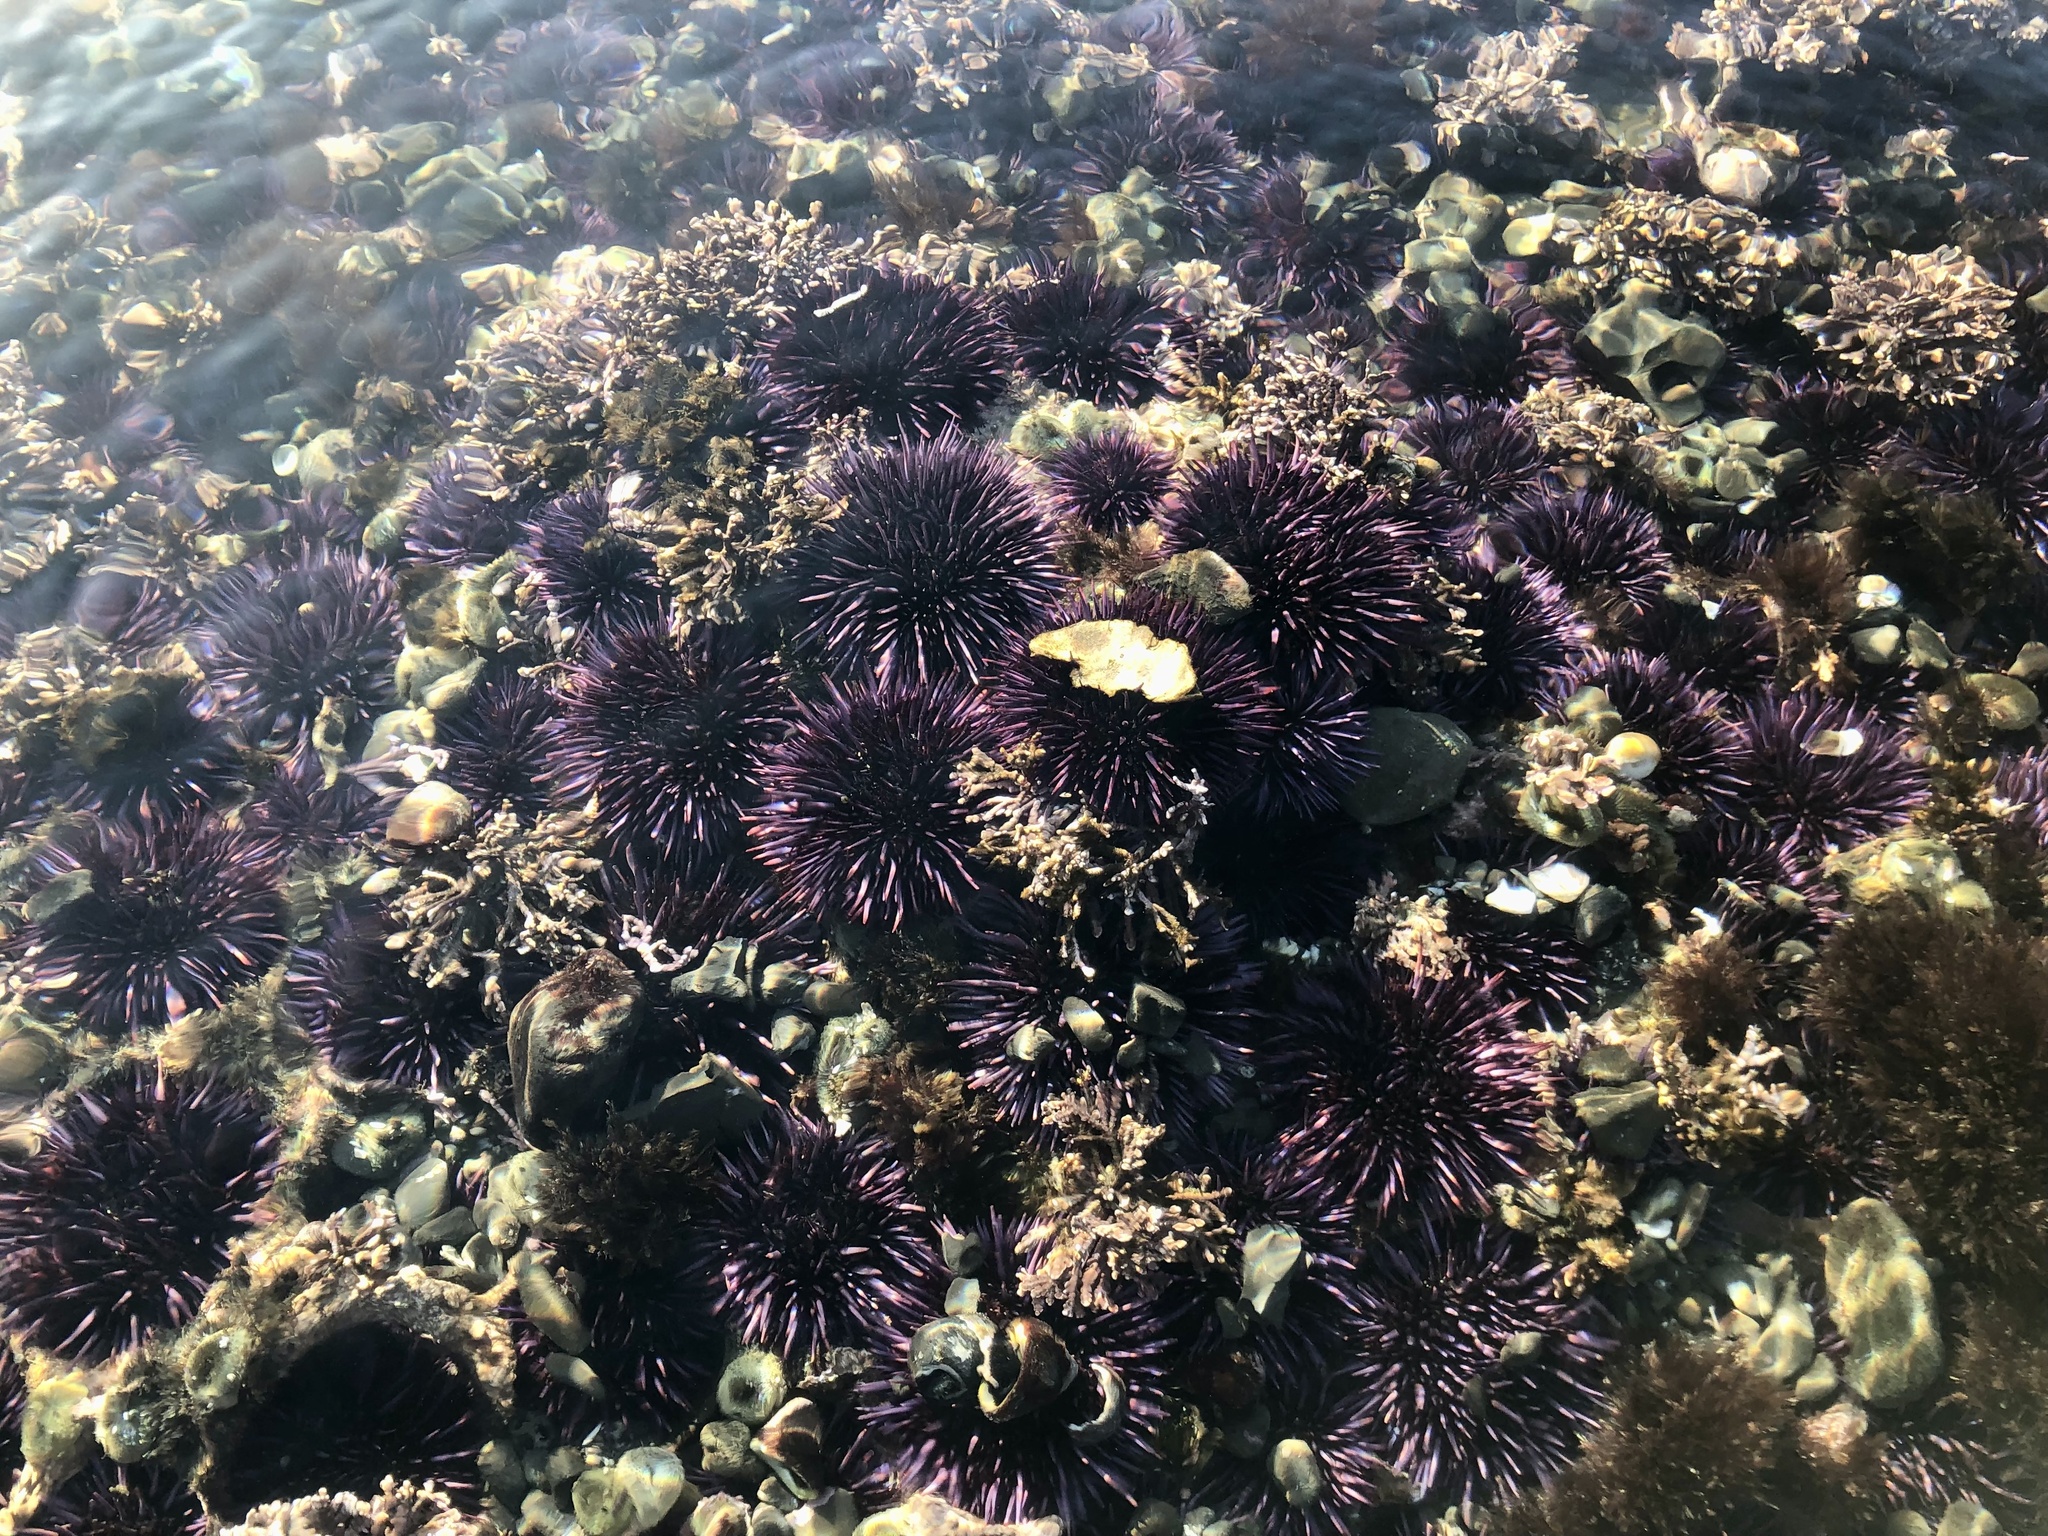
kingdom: Animalia
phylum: Echinodermata
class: Echinoidea
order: Camarodonta
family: Strongylocentrotidae
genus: Strongylocentrotus
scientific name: Strongylocentrotus purpuratus
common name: Purple sea urchin
